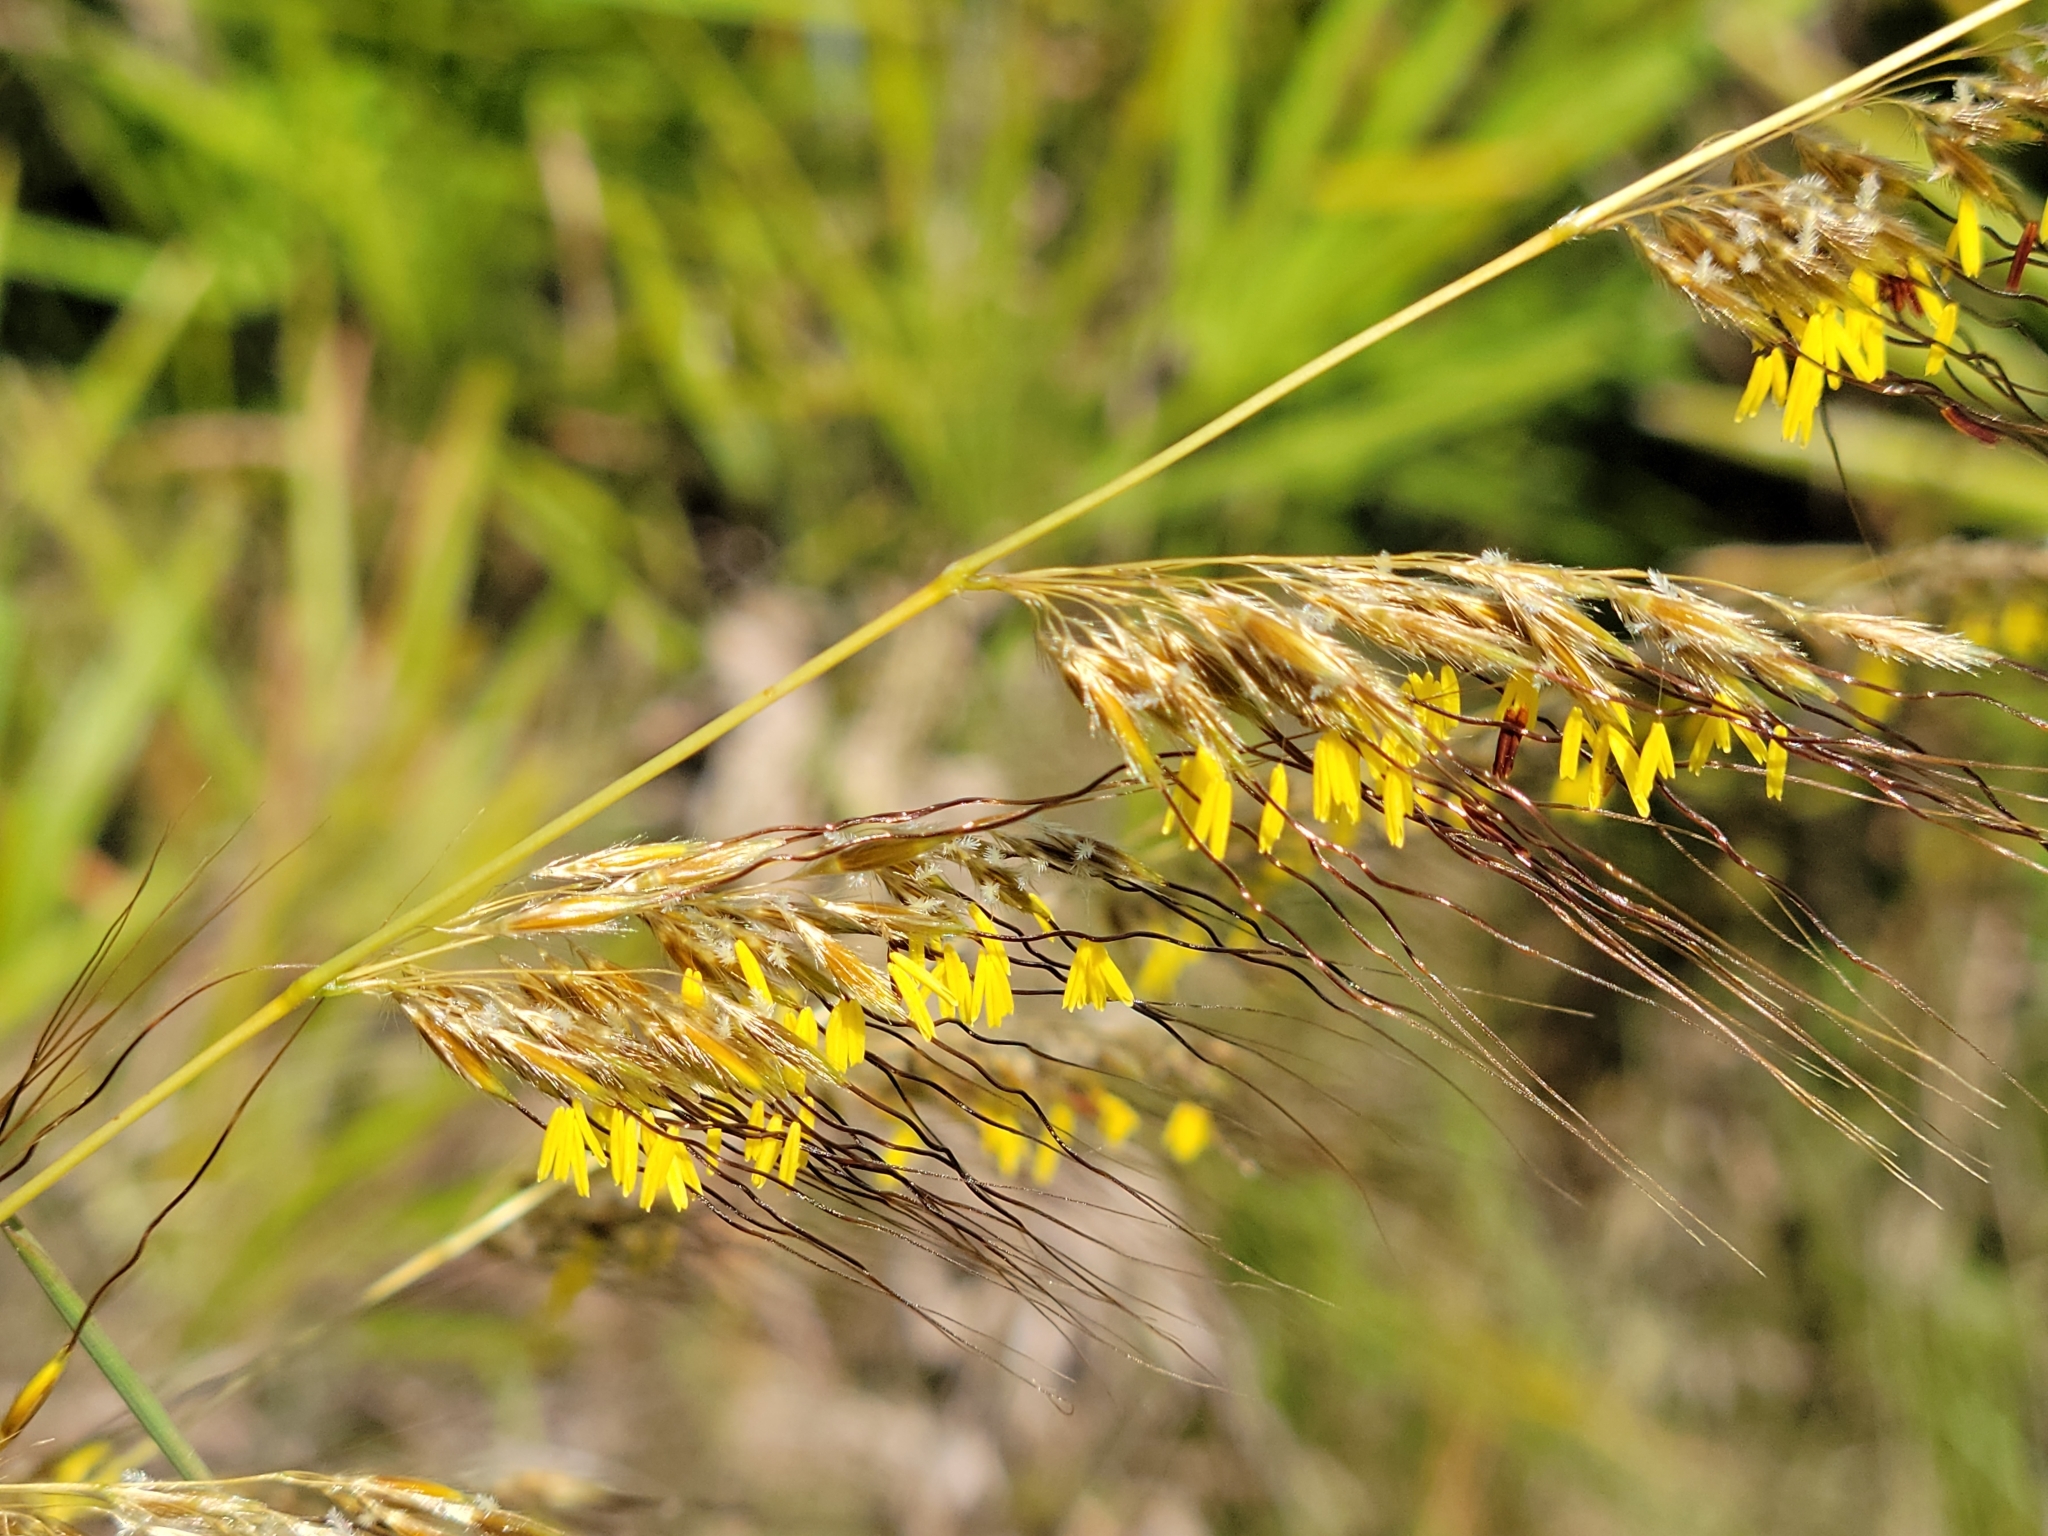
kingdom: Plantae
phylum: Tracheophyta
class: Liliopsida
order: Poales
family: Poaceae
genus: Sorghastrum
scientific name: Sorghastrum secundum
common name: Lopsided indian grass
